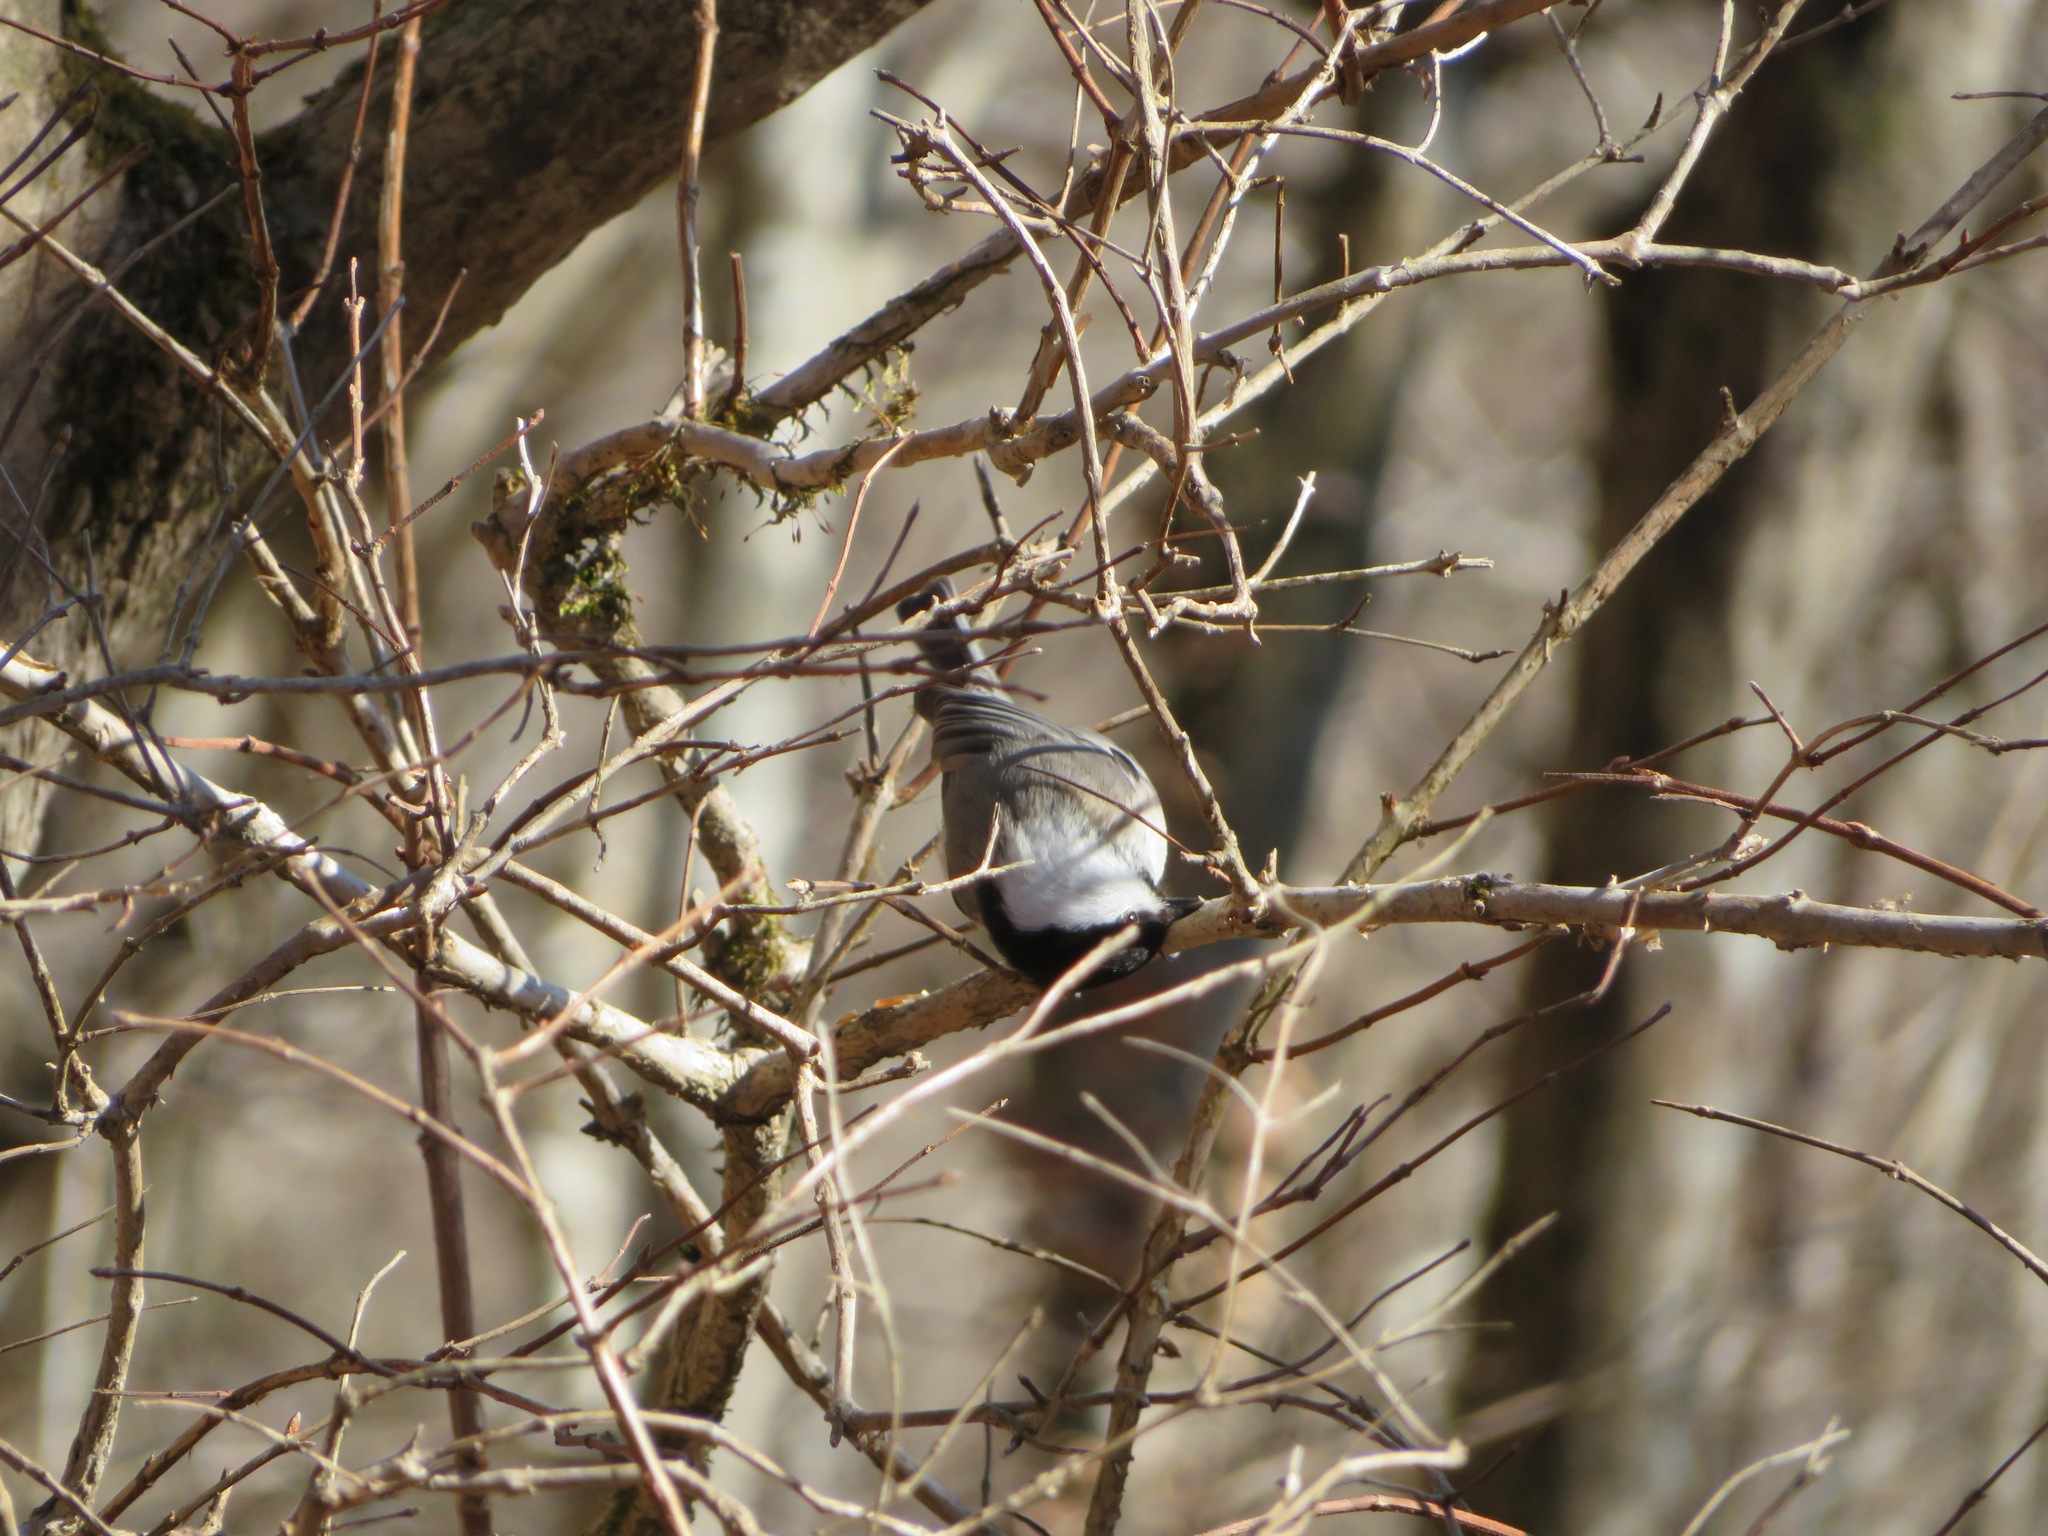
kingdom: Animalia
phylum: Chordata
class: Aves
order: Passeriformes
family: Paridae
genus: Poecile
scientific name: Poecile montanus
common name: Willow tit
